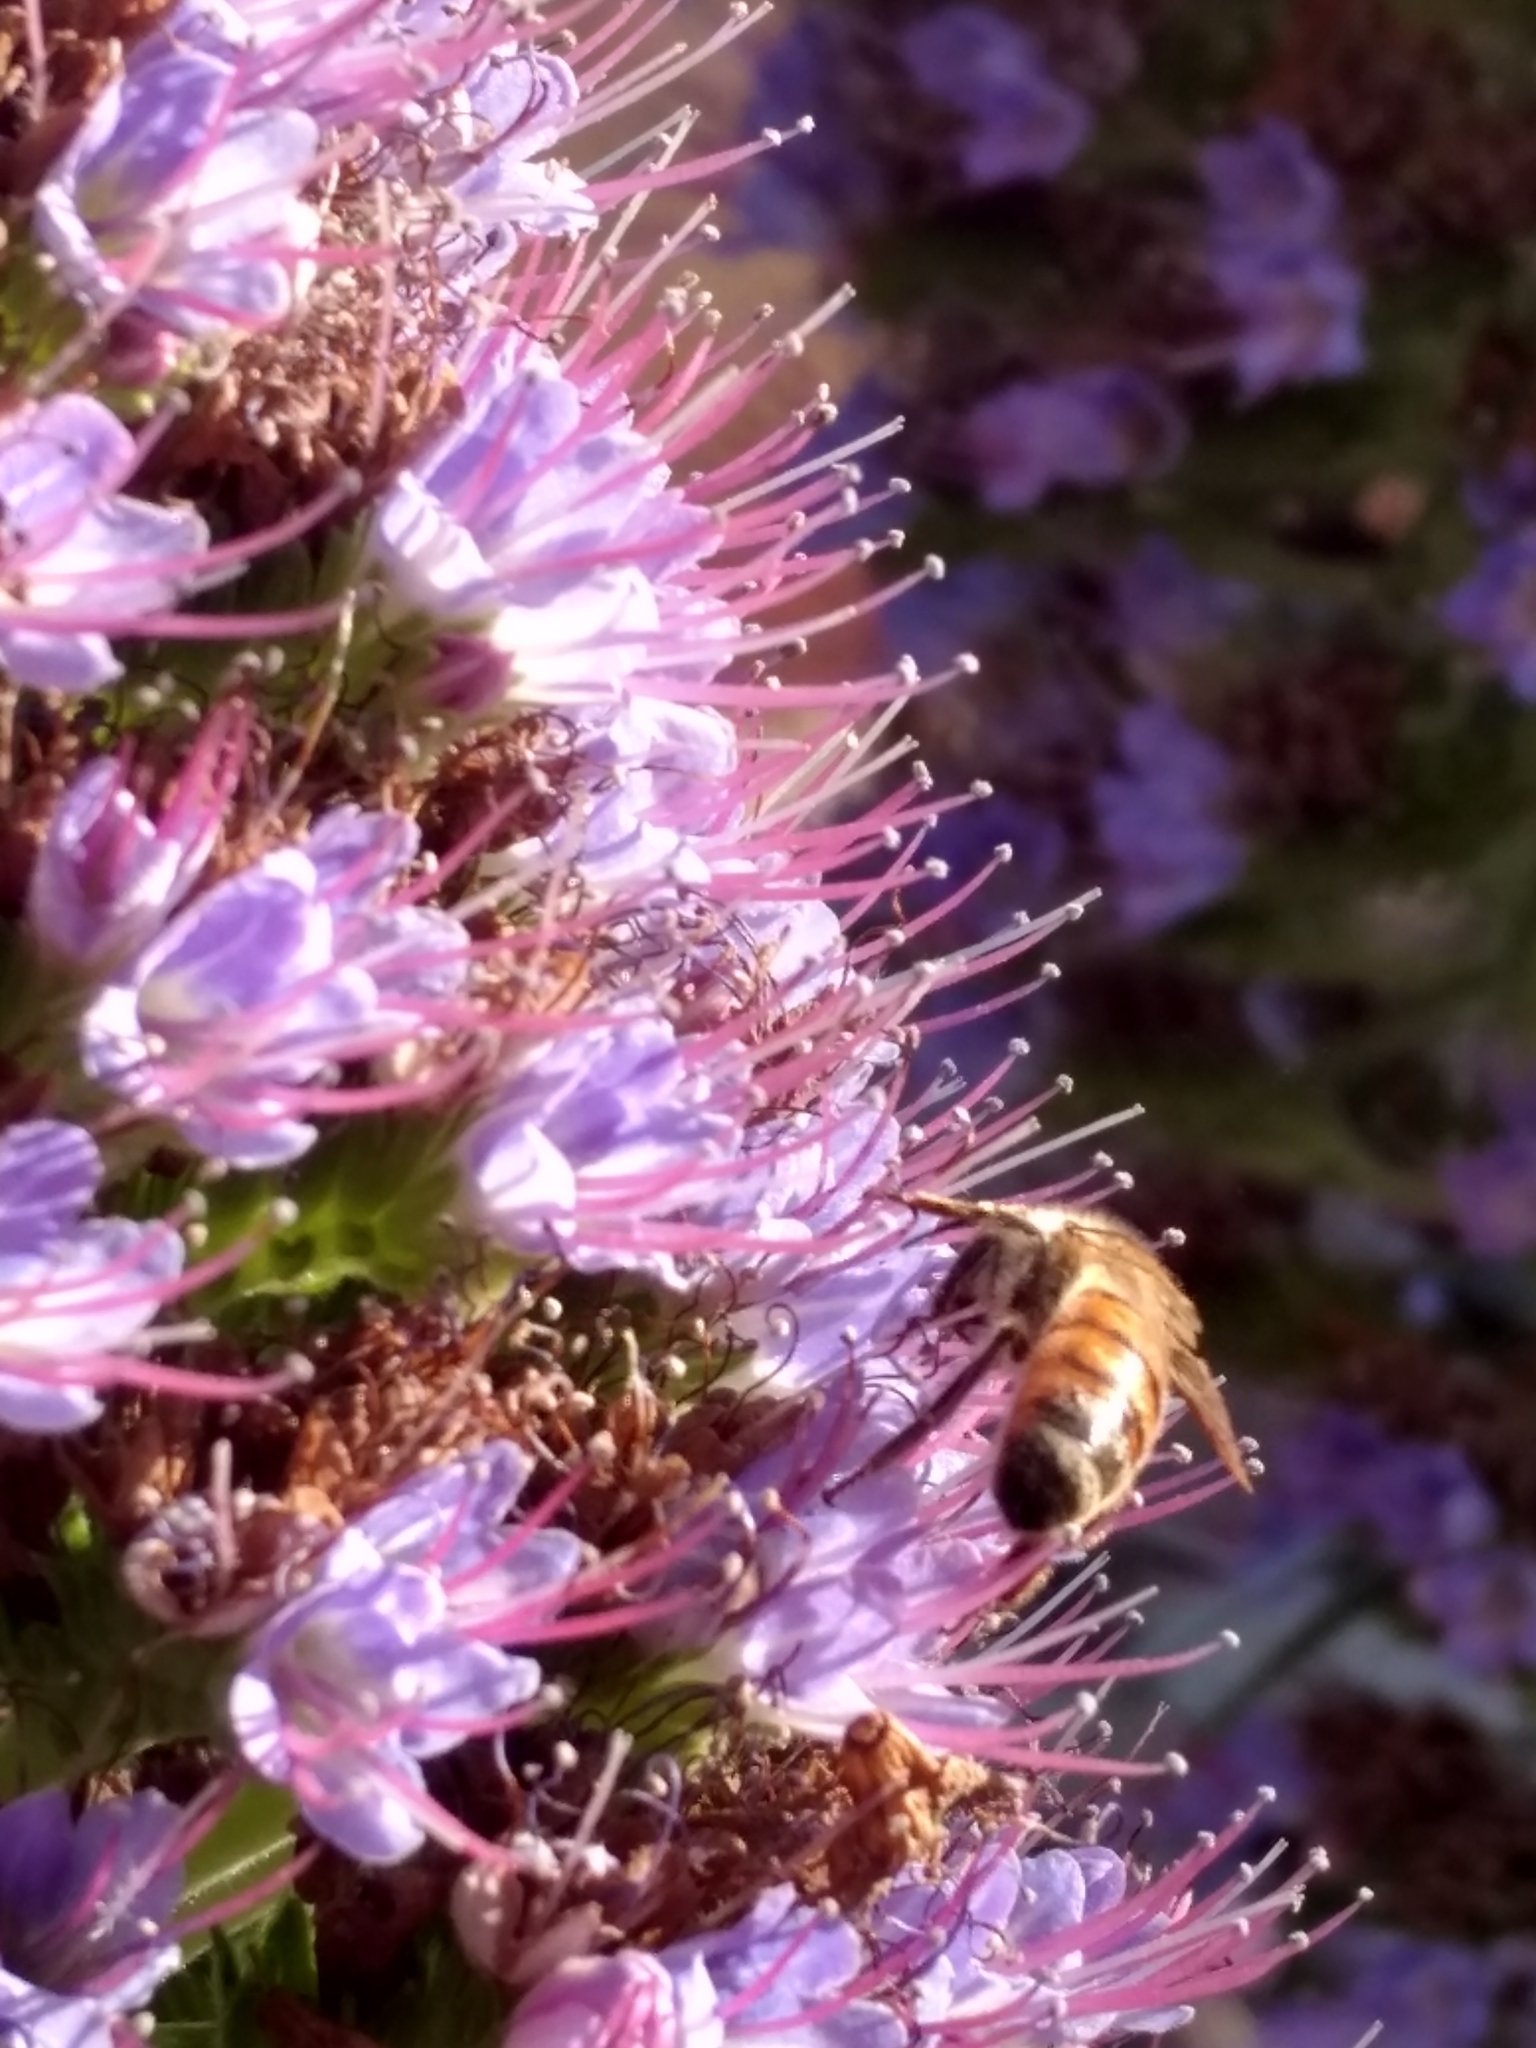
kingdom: Animalia
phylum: Arthropoda
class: Insecta
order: Hymenoptera
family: Apidae
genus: Apis
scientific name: Apis mellifera
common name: Honey bee
